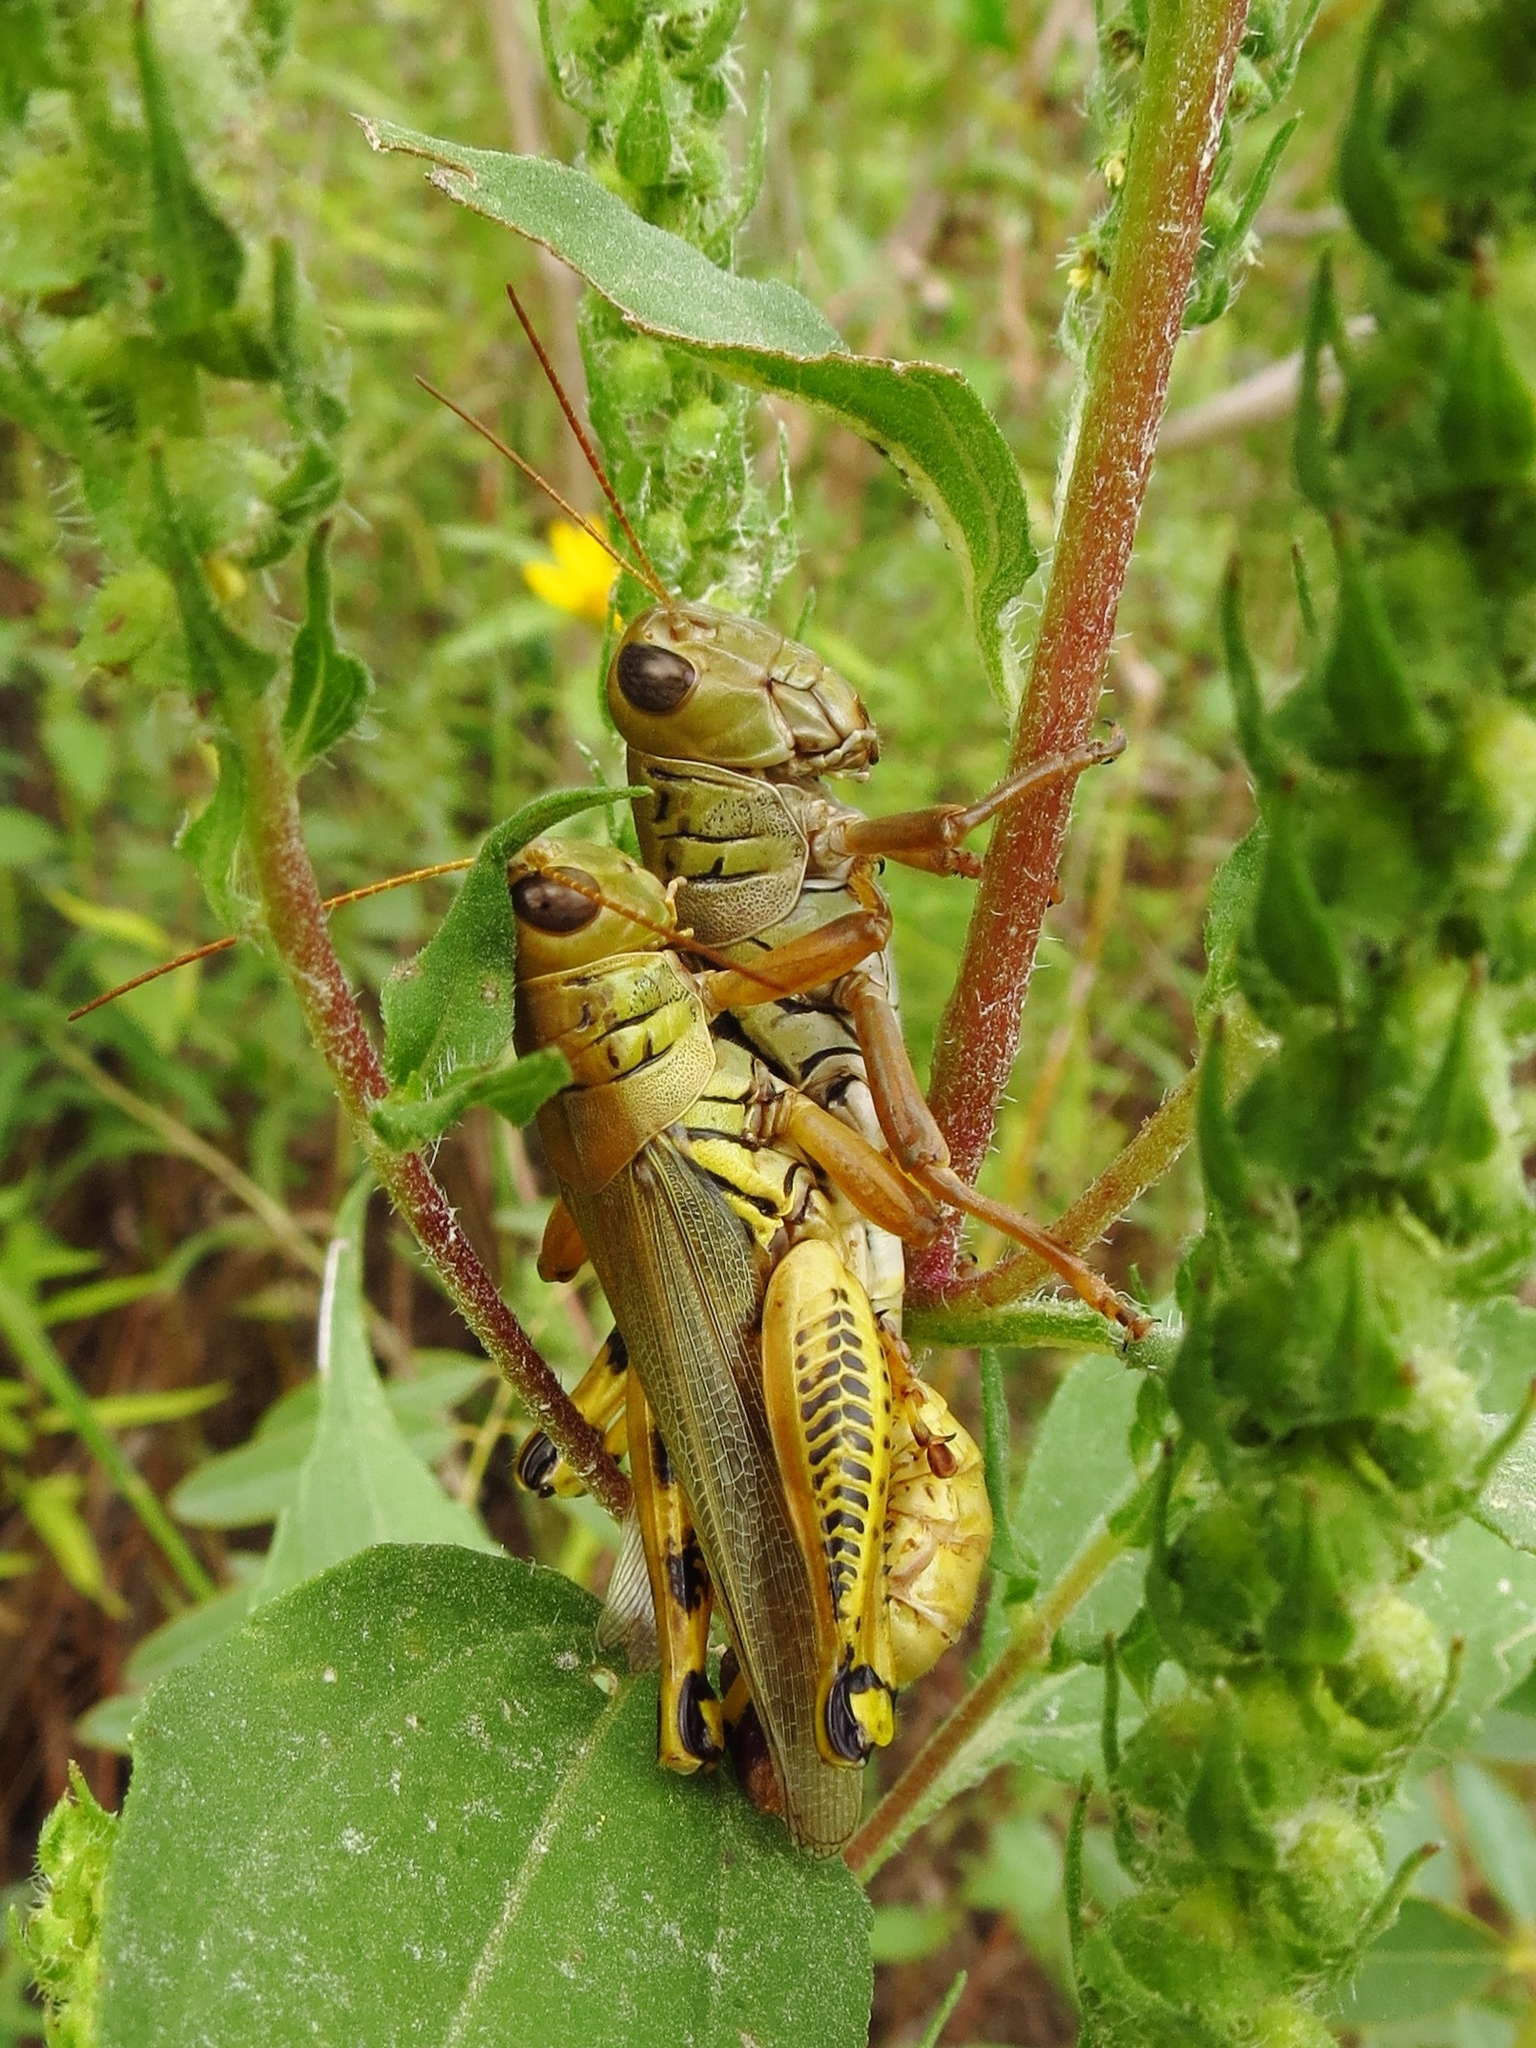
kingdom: Animalia
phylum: Arthropoda
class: Insecta
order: Orthoptera
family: Acrididae
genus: Melanoplus
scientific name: Melanoplus differentialis
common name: Differential grasshopper
